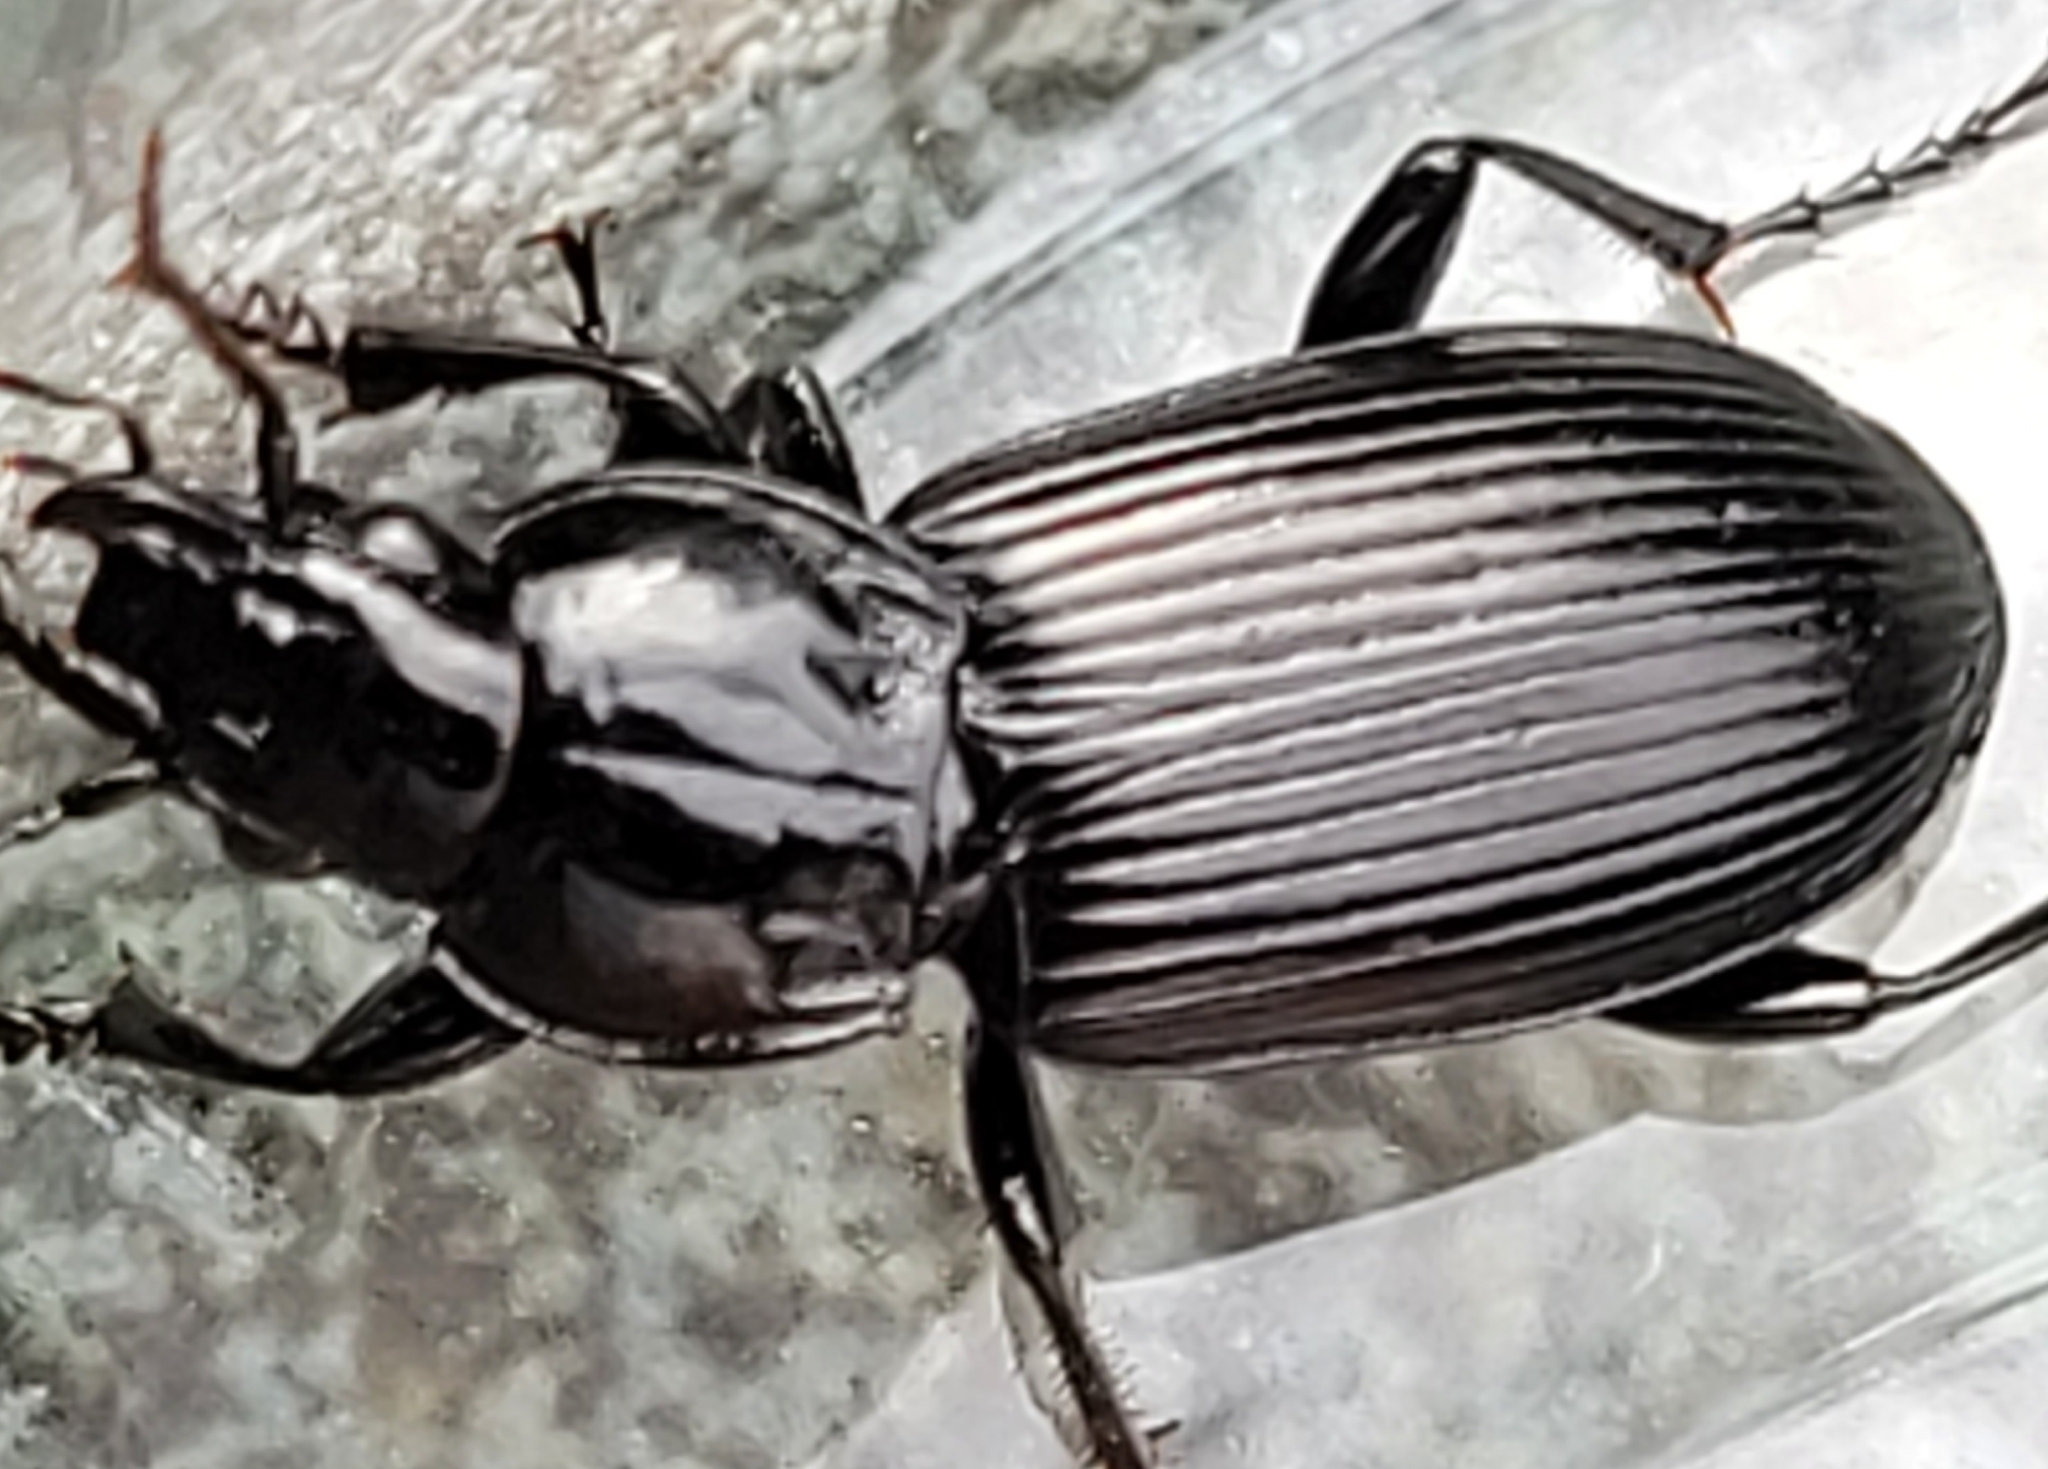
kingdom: Animalia
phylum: Arthropoda
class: Insecta
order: Coleoptera
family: Carabidae
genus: Pterostichus
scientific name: Pterostichus melanarius
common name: European dark harp ground beetle
